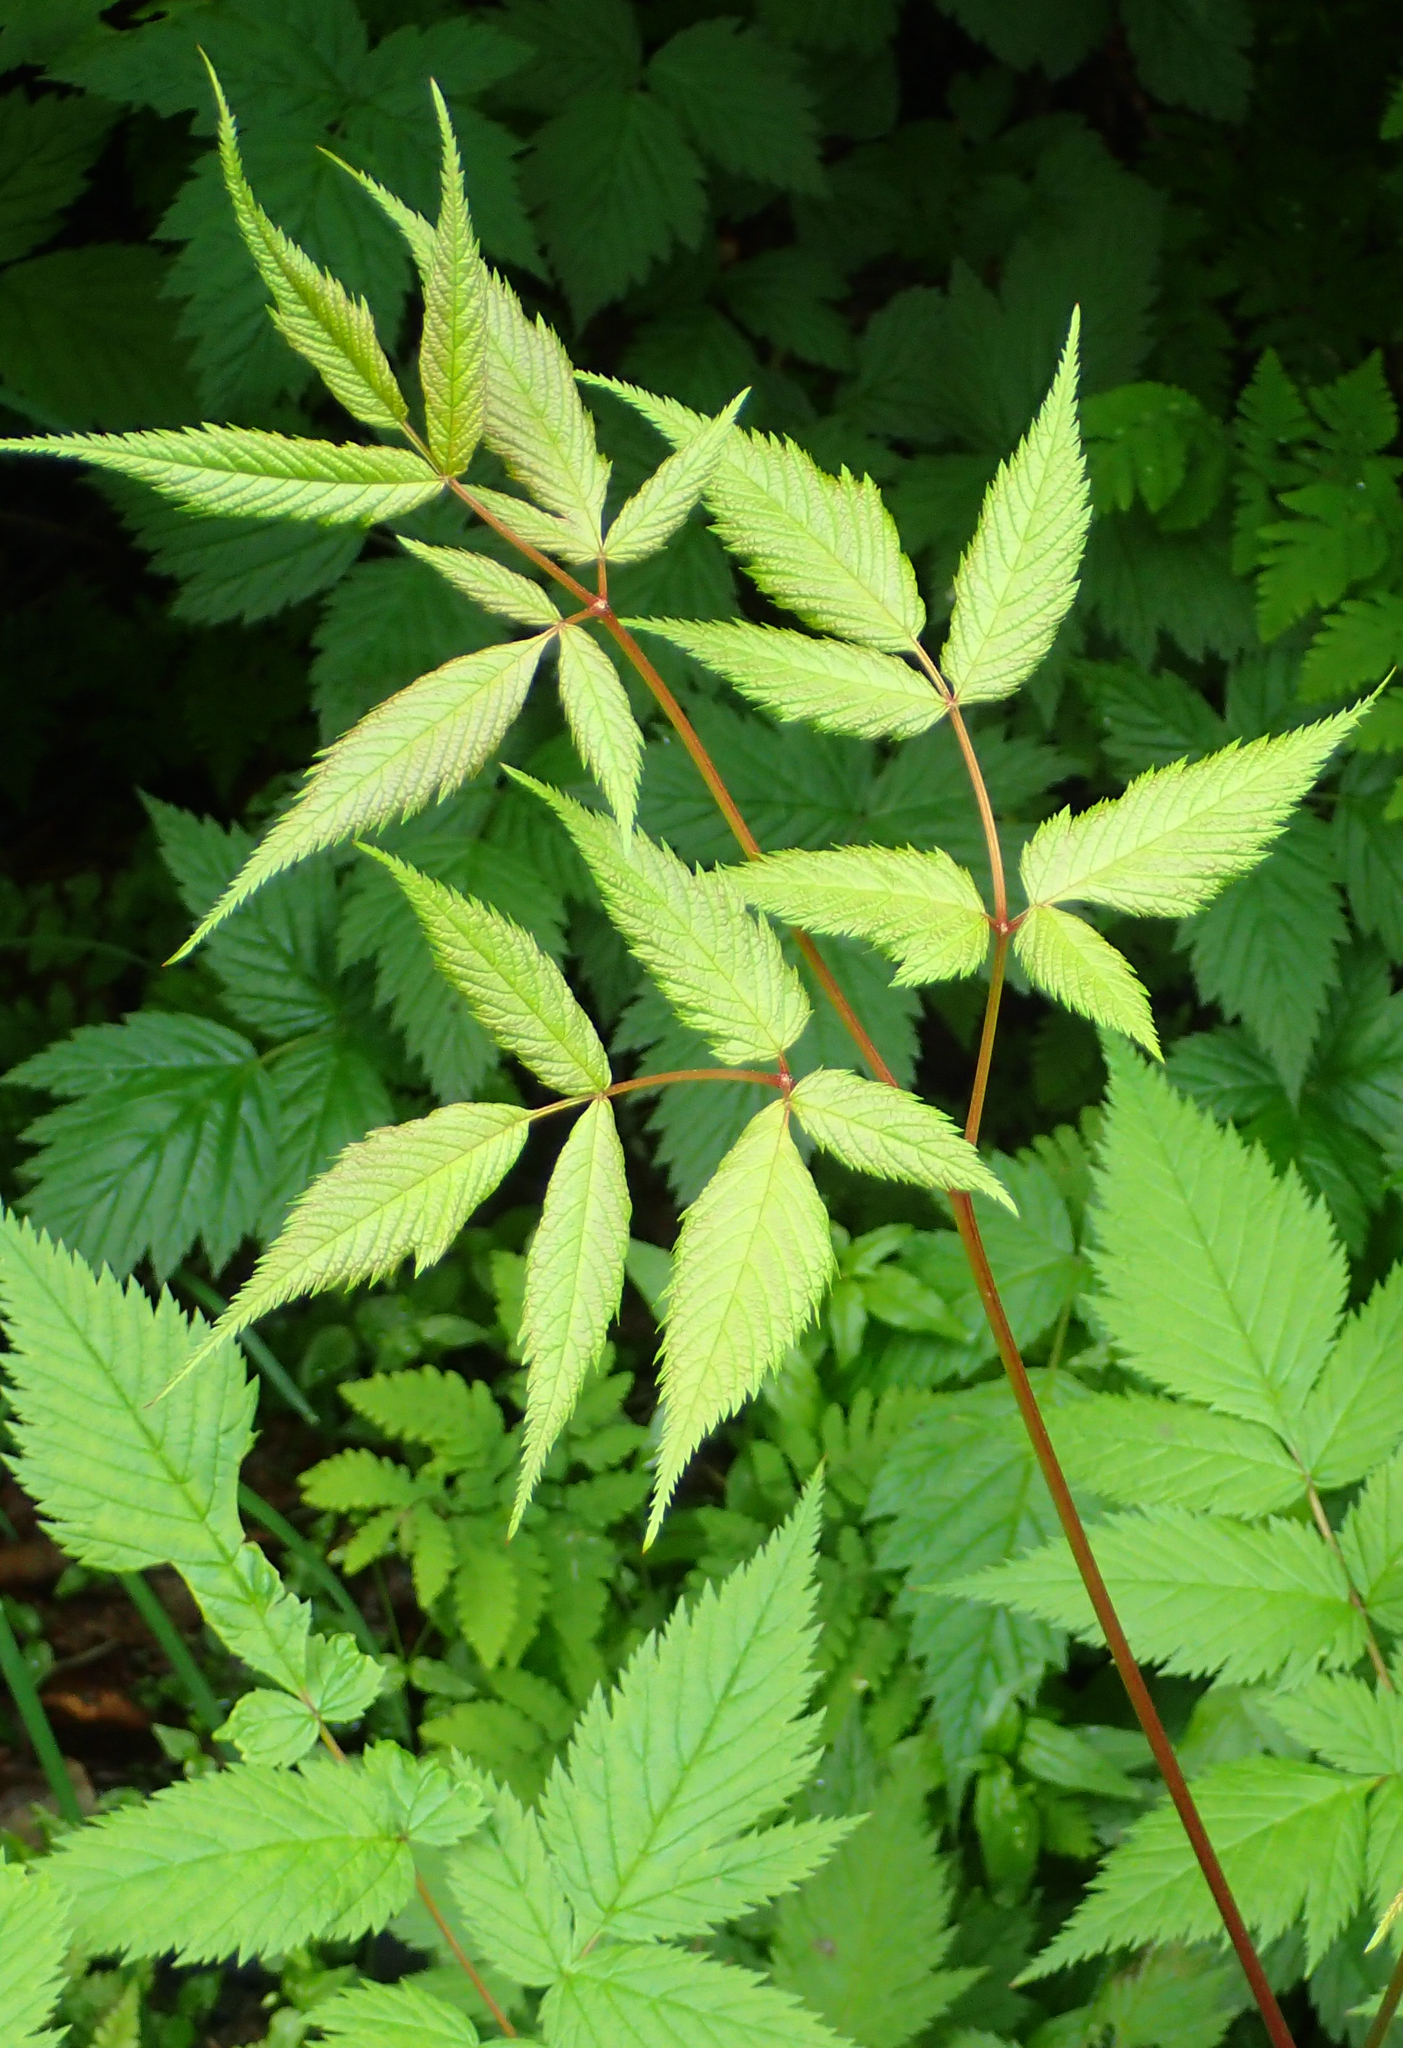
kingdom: Plantae
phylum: Tracheophyta
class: Magnoliopsida
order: Rosales
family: Rosaceae
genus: Aruncus
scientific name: Aruncus dioicus
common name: Buck's-beard
